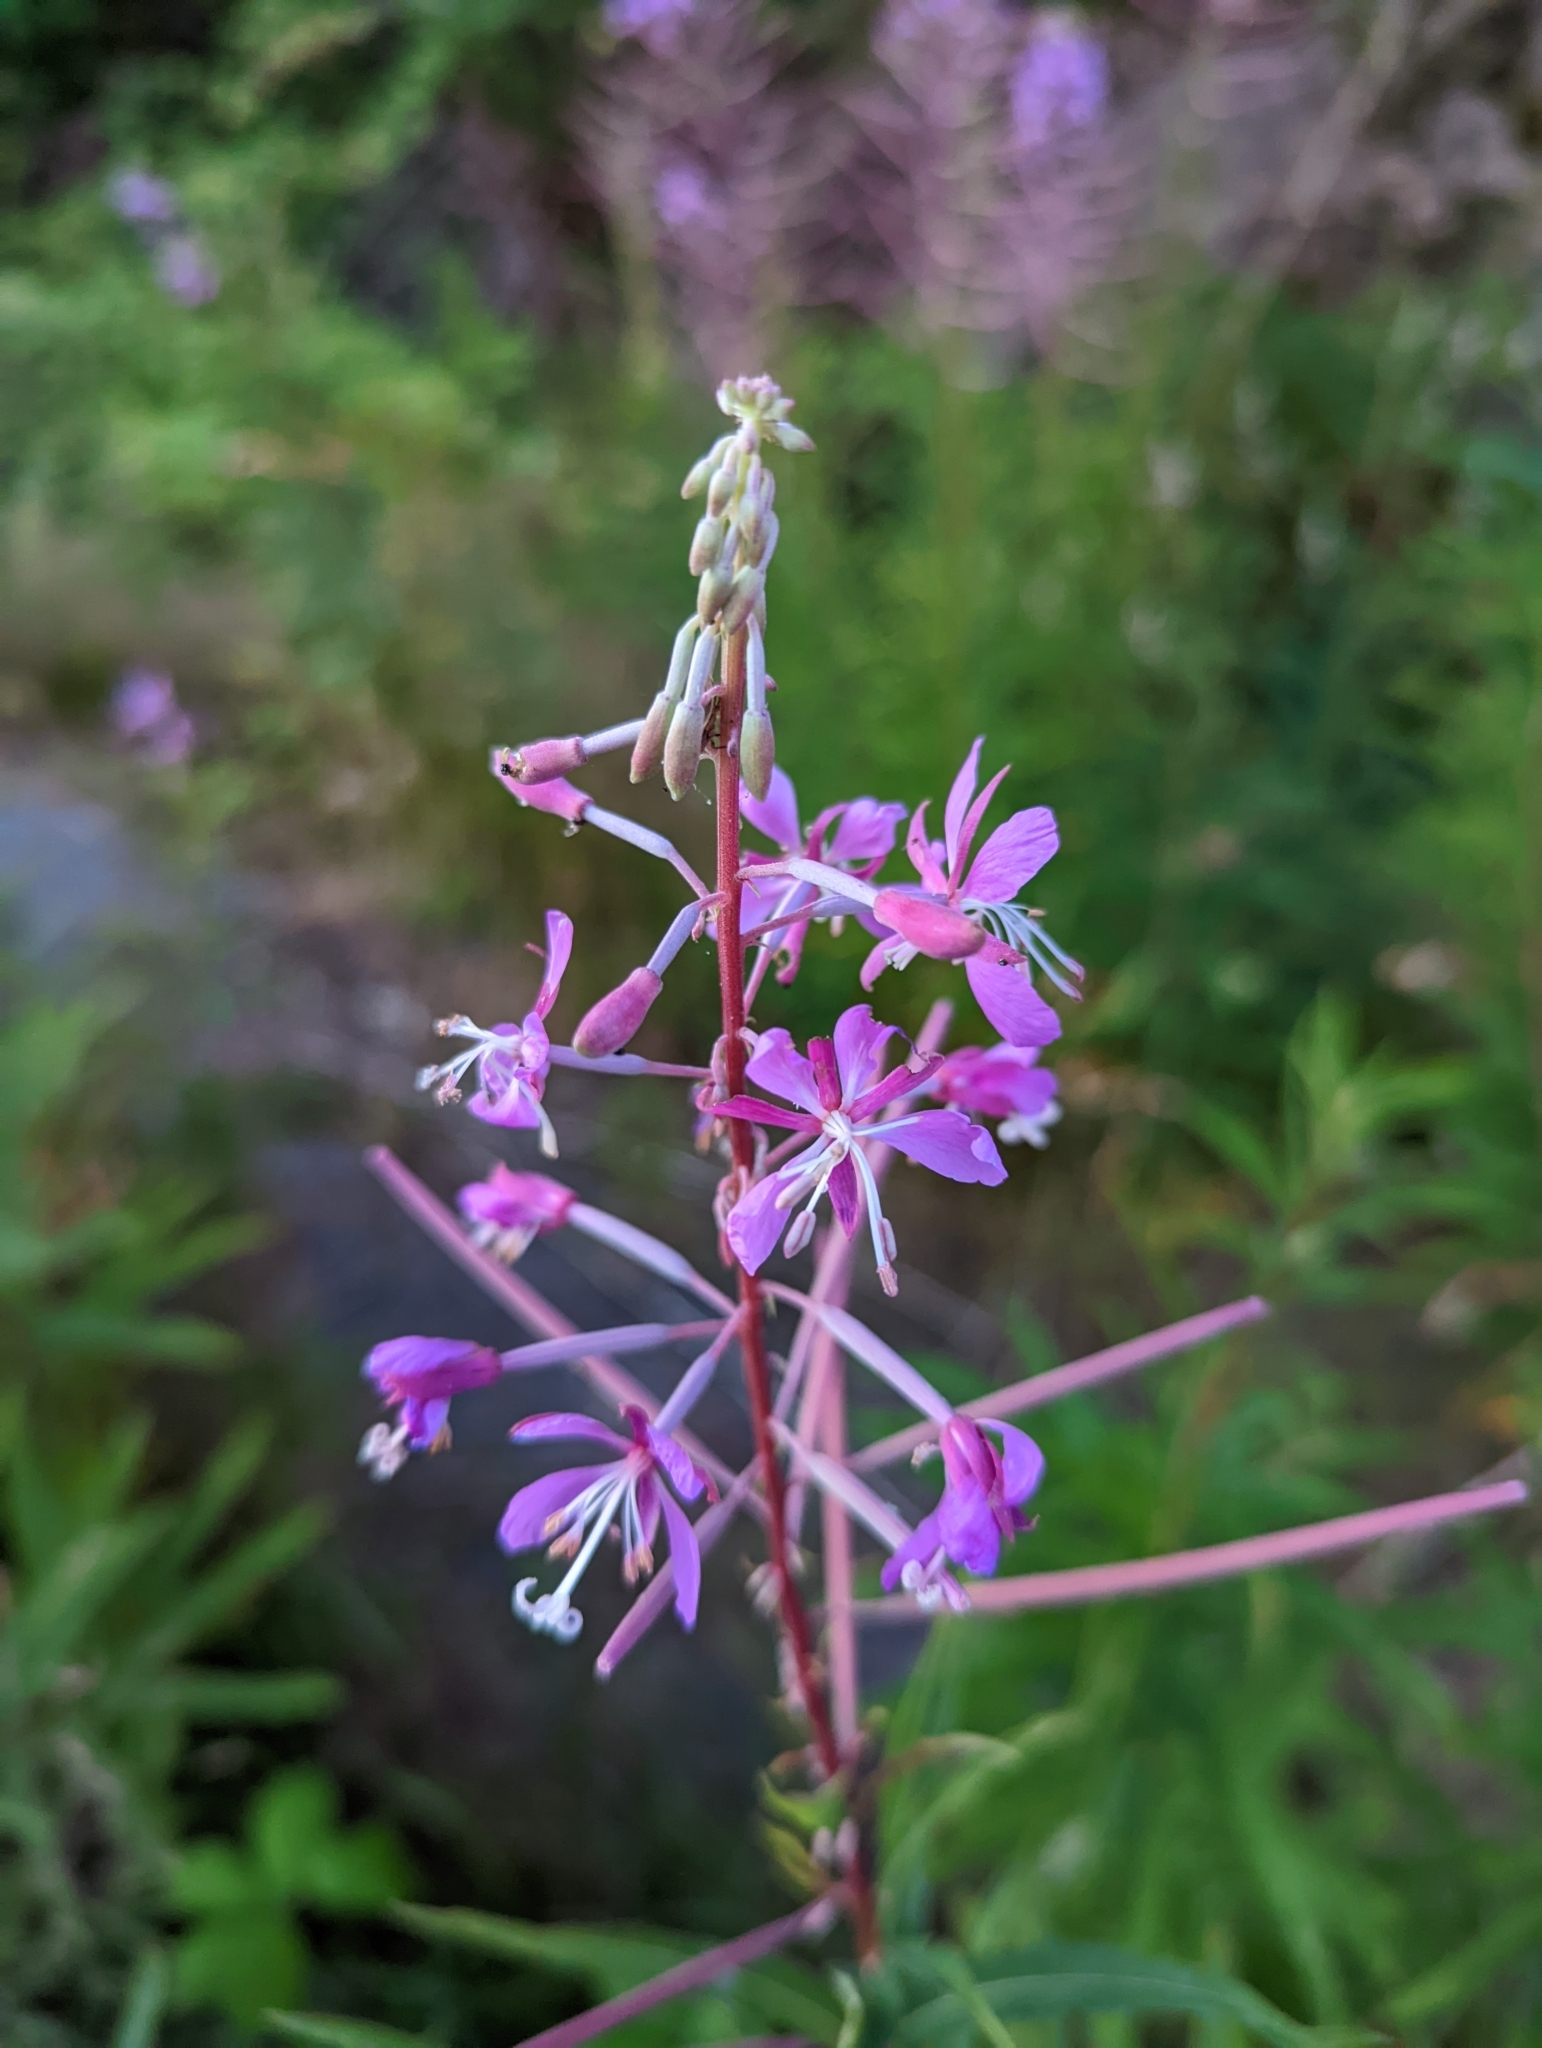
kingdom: Plantae
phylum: Tracheophyta
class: Magnoliopsida
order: Myrtales
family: Onagraceae
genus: Chamaenerion
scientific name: Chamaenerion angustifolium
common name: Fireweed
